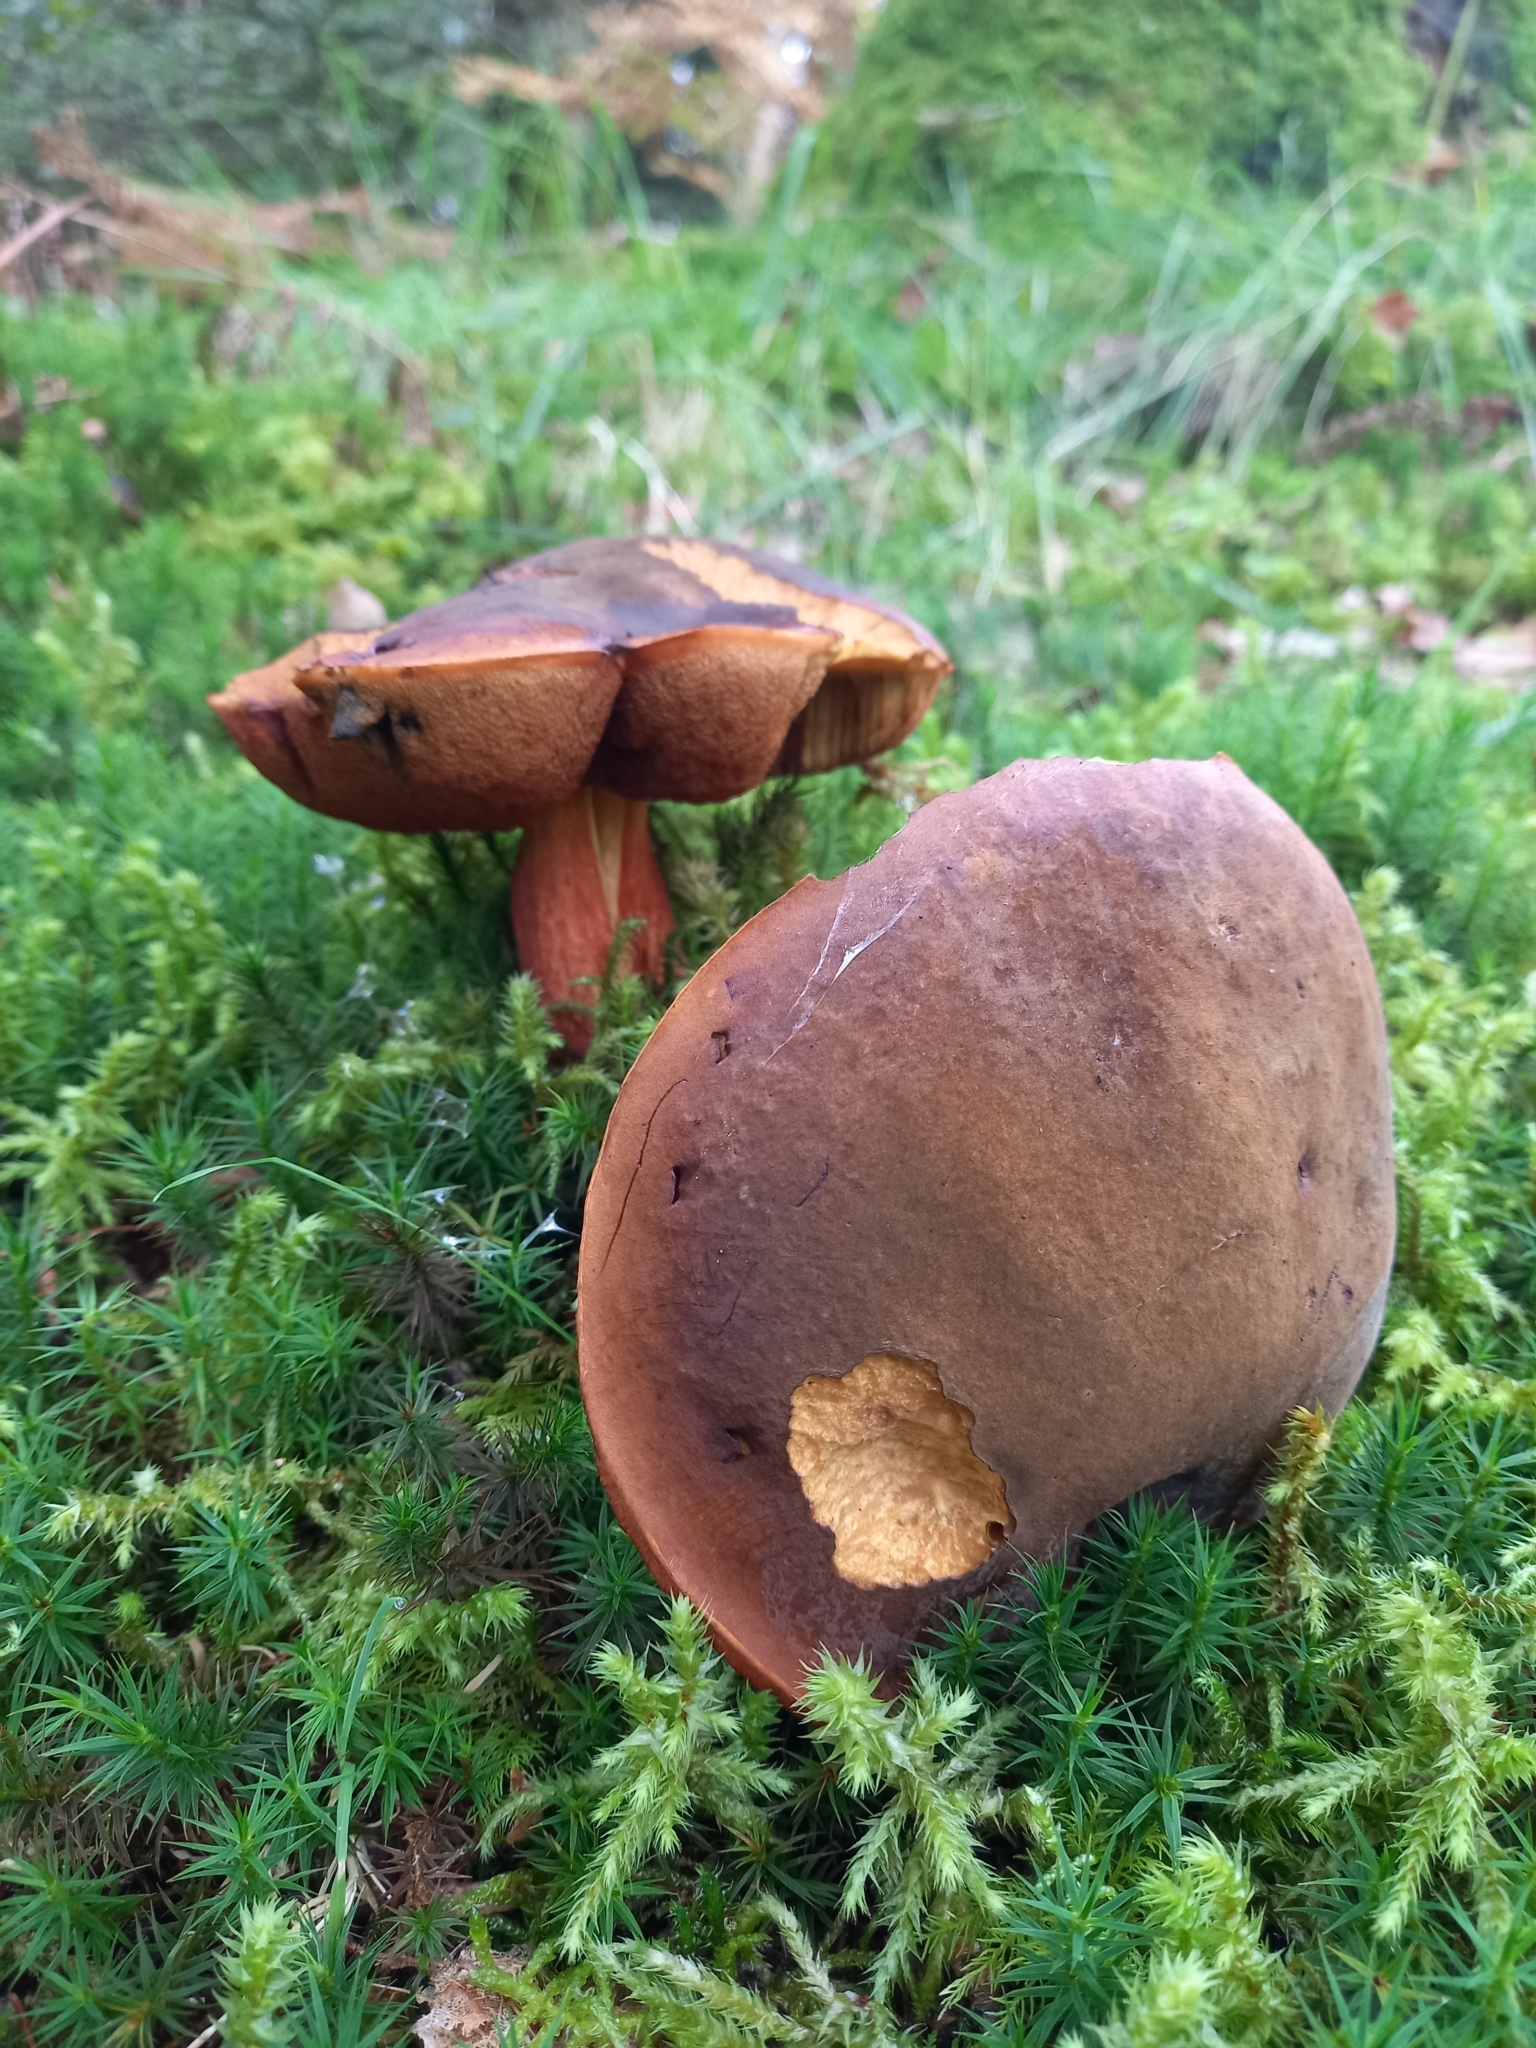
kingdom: Fungi
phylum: Basidiomycota
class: Agaricomycetes
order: Boletales
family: Boletaceae
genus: Neoboletus
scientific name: Neoboletus erythropus
